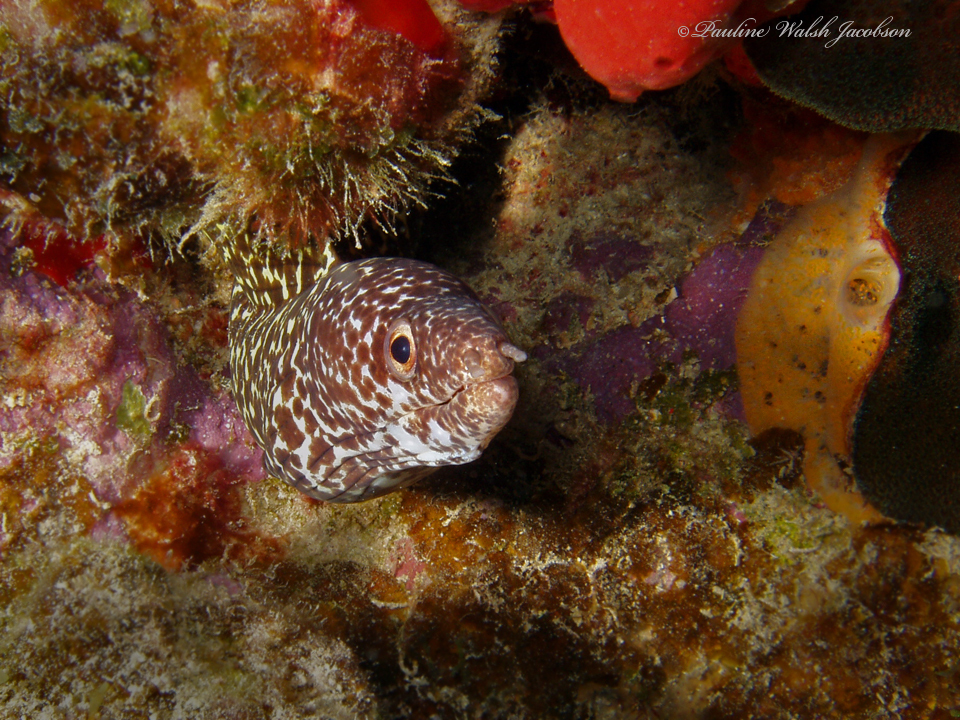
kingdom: Animalia
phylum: Chordata
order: Anguilliformes
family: Muraenidae
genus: Gymnothorax
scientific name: Gymnothorax moringa
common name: Spotted moray
